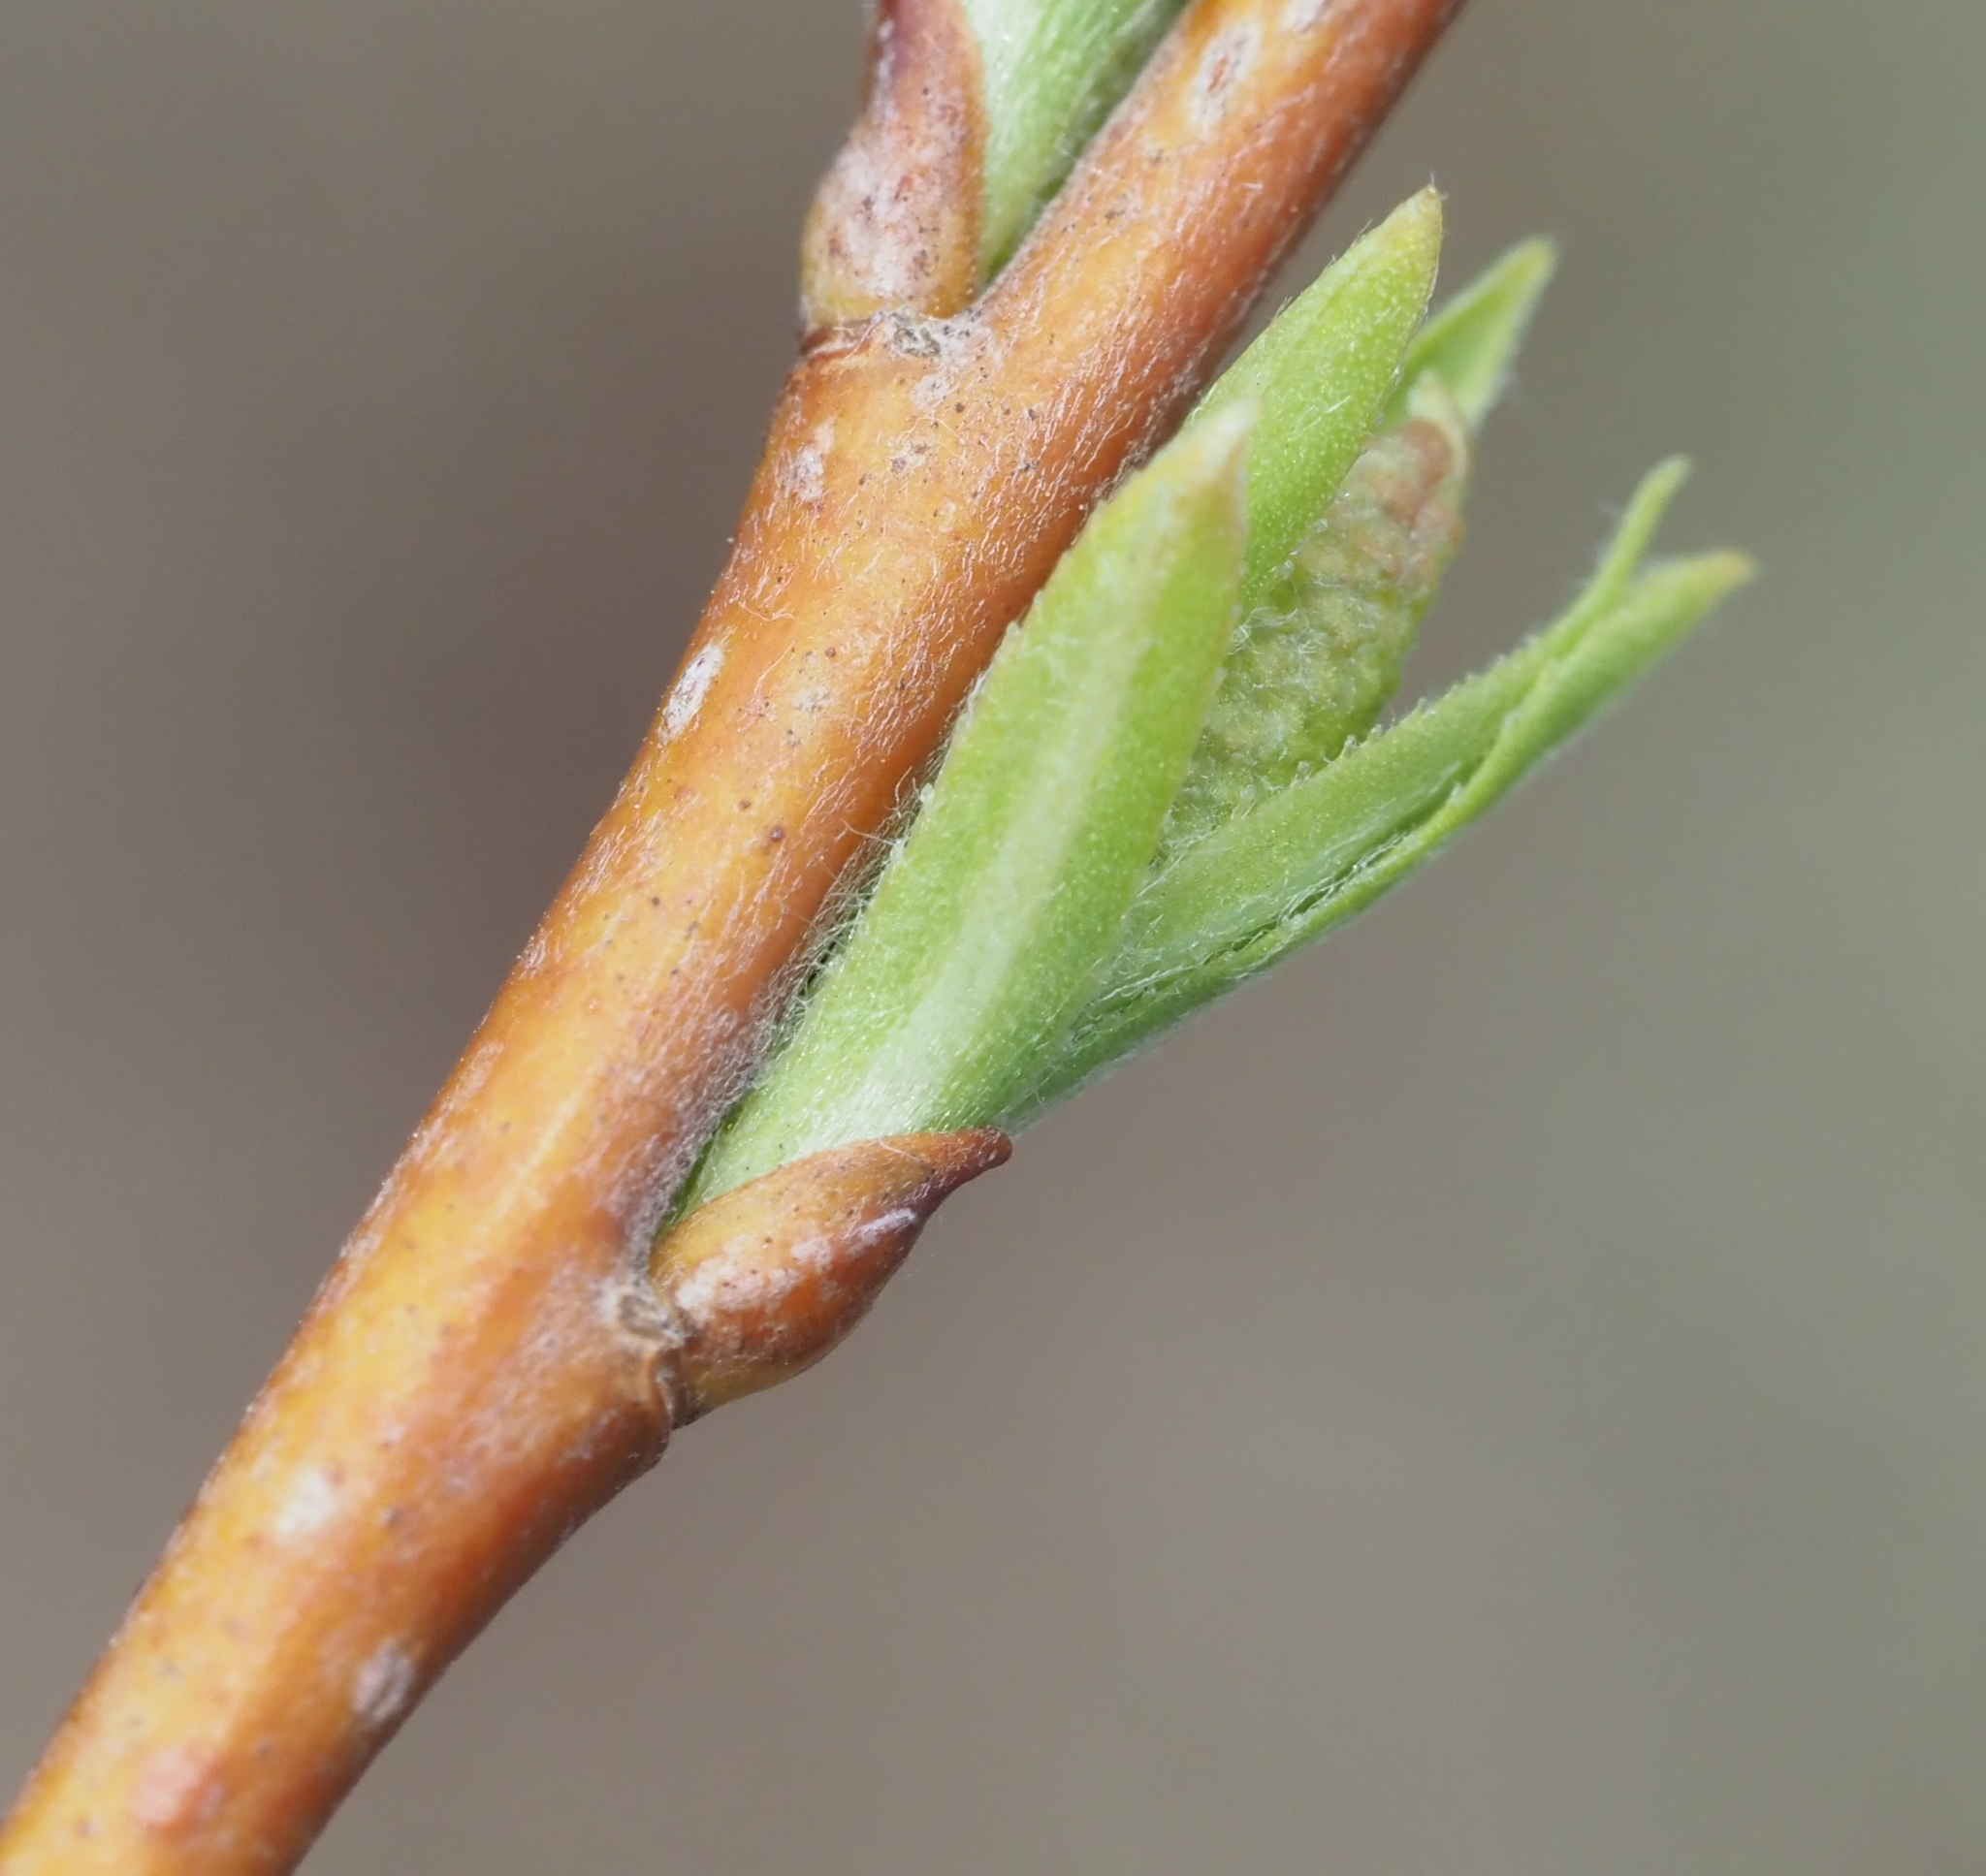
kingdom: Plantae
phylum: Tracheophyta
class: Magnoliopsida
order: Malpighiales
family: Salicaceae
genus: Salix
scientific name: Salix interior
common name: Sandbar willow
